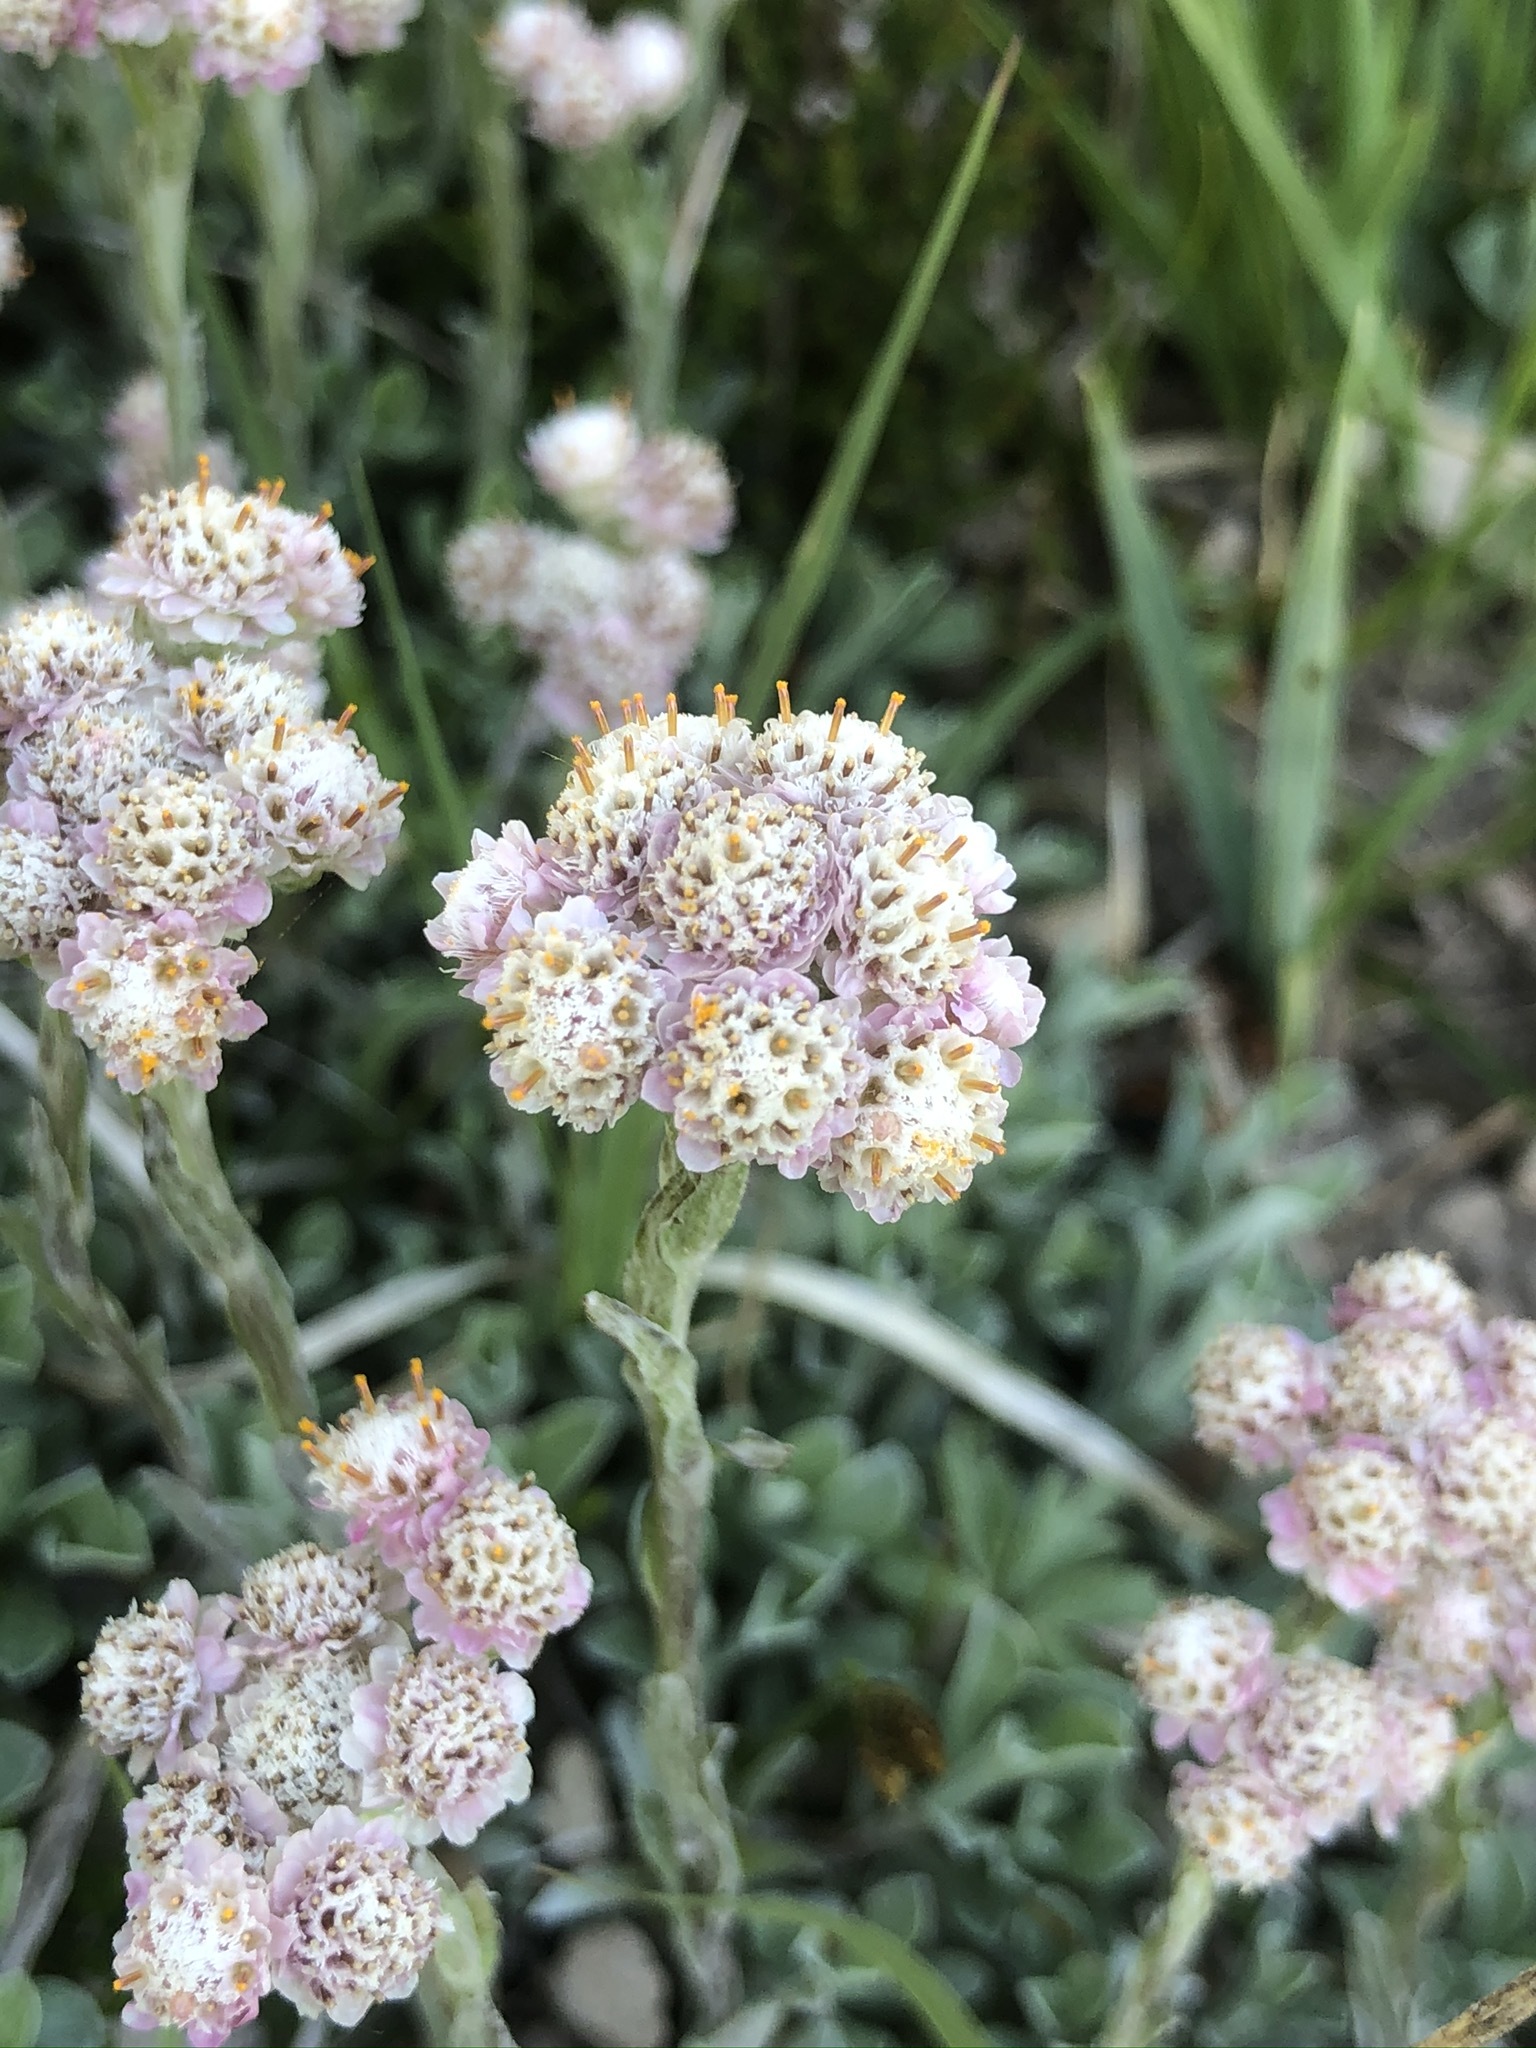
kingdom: Plantae
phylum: Tracheophyta
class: Magnoliopsida
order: Asterales
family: Asteraceae
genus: Antennaria
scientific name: Antennaria dioica
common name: Mountain everlasting
